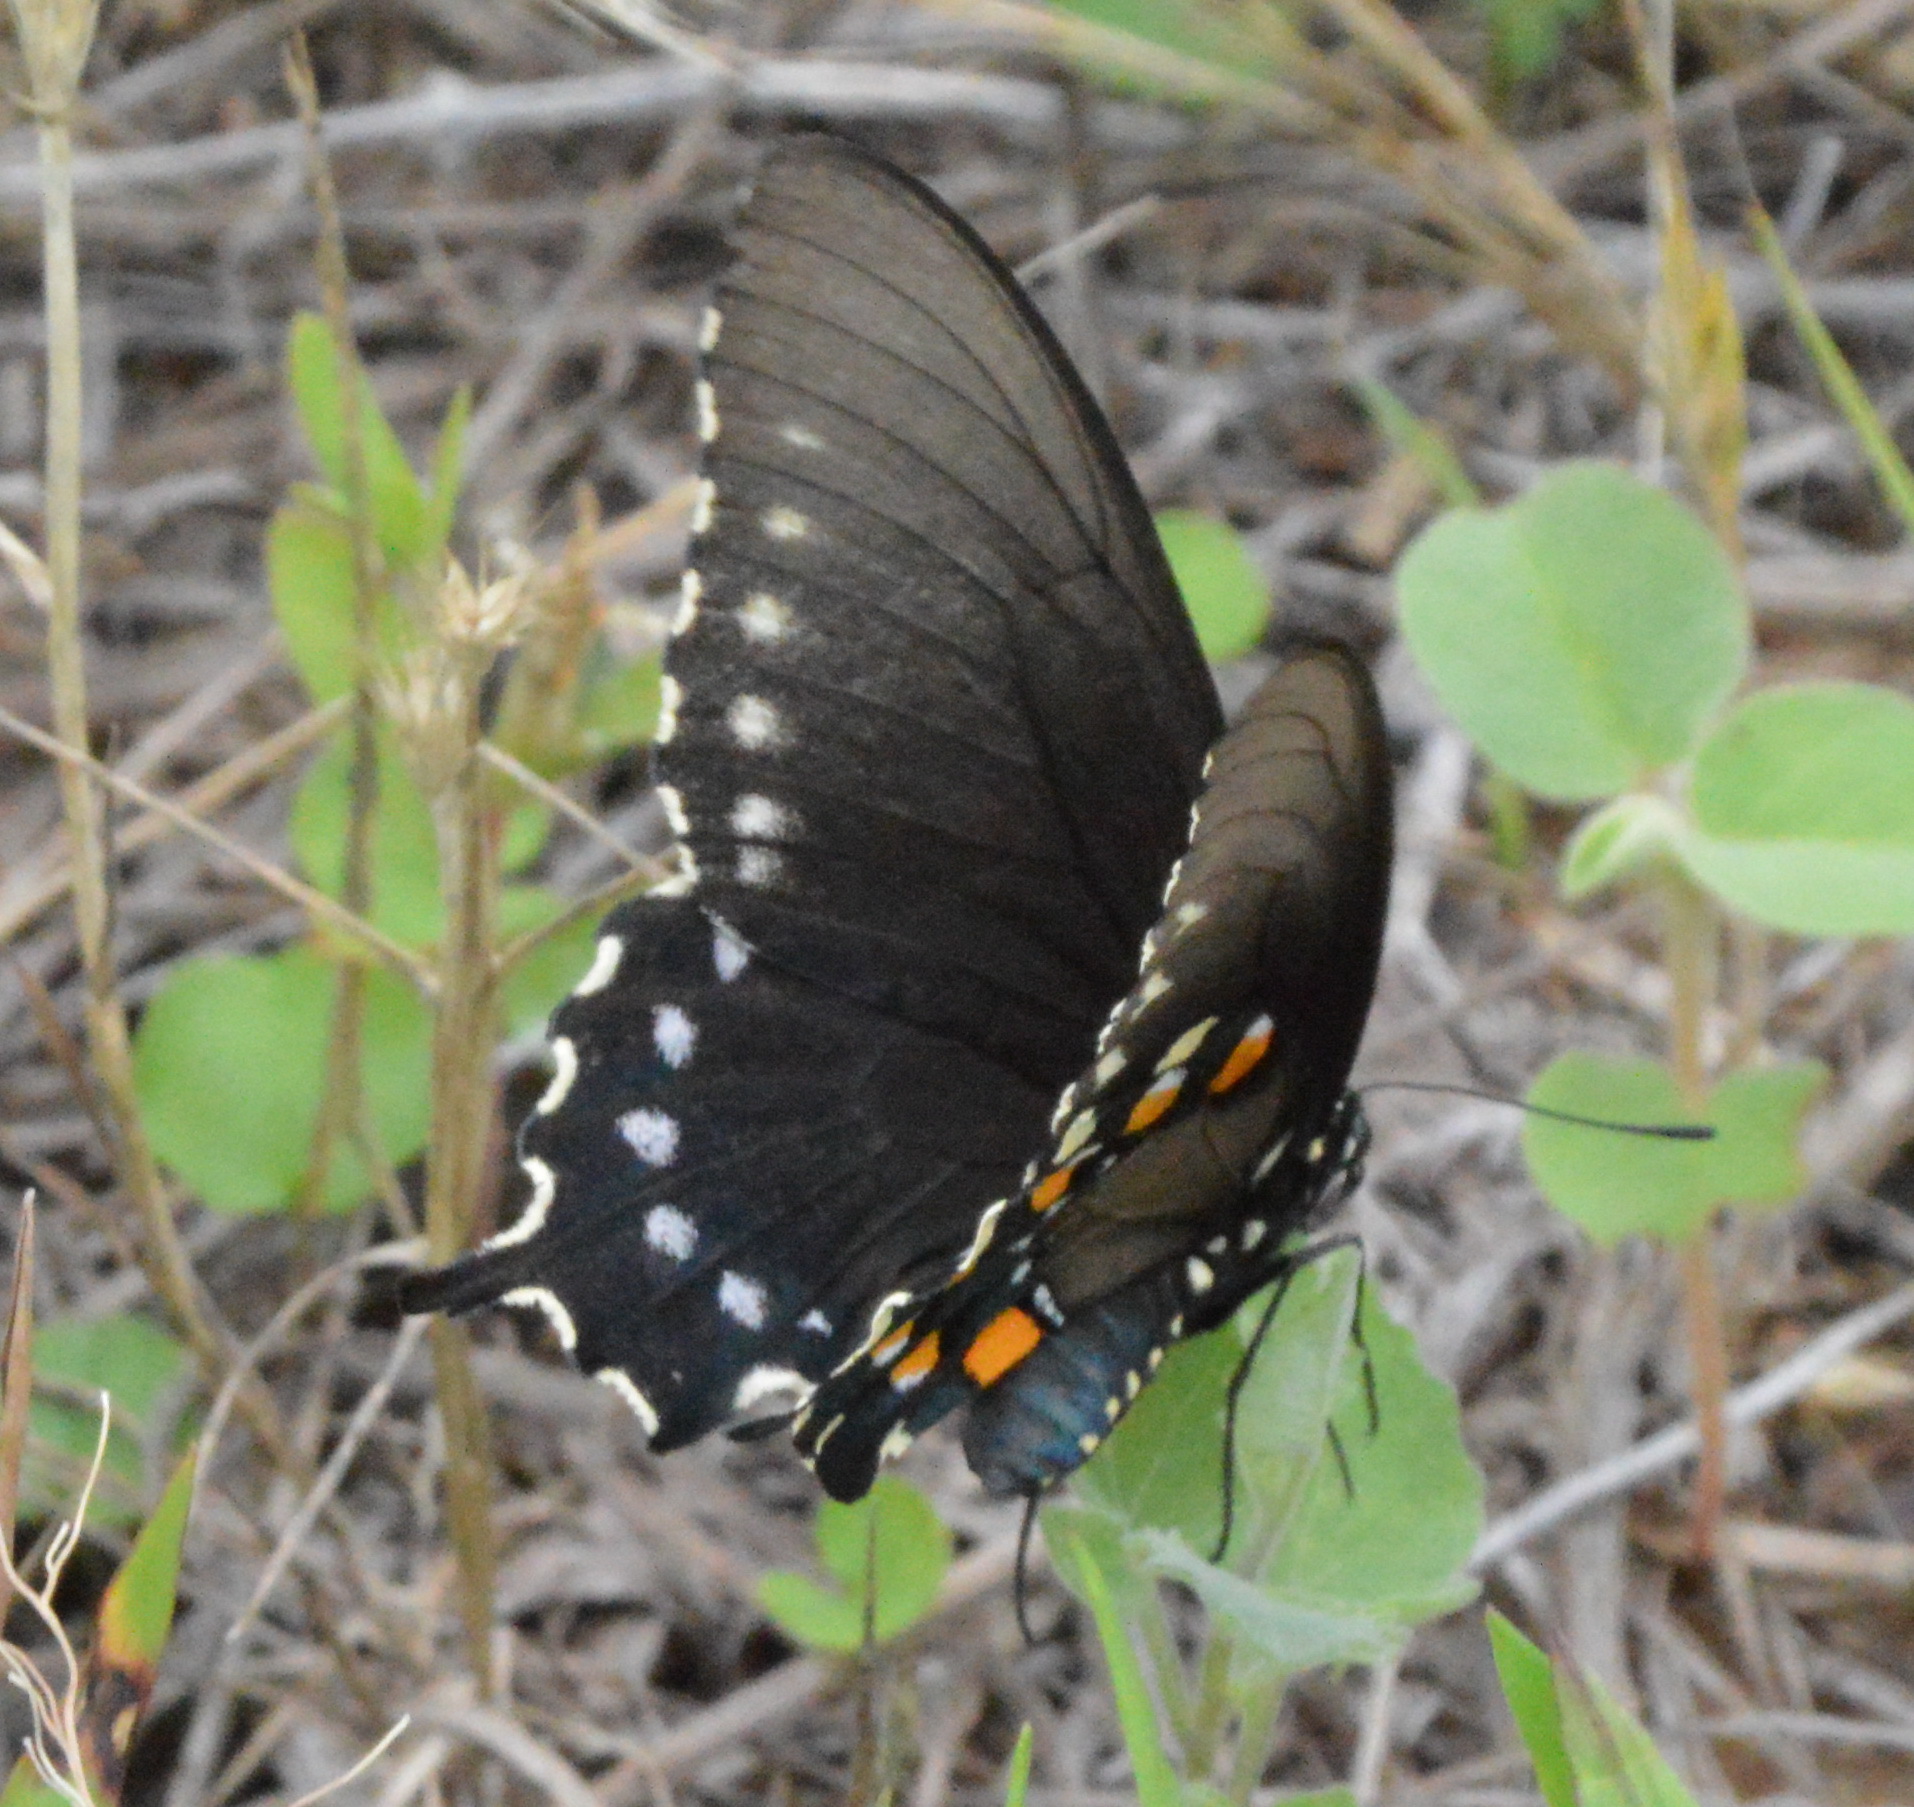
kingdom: Animalia
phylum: Arthropoda
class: Insecta
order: Lepidoptera
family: Papilionidae
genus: Battus
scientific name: Battus philenor
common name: Pipevine swallowtail
